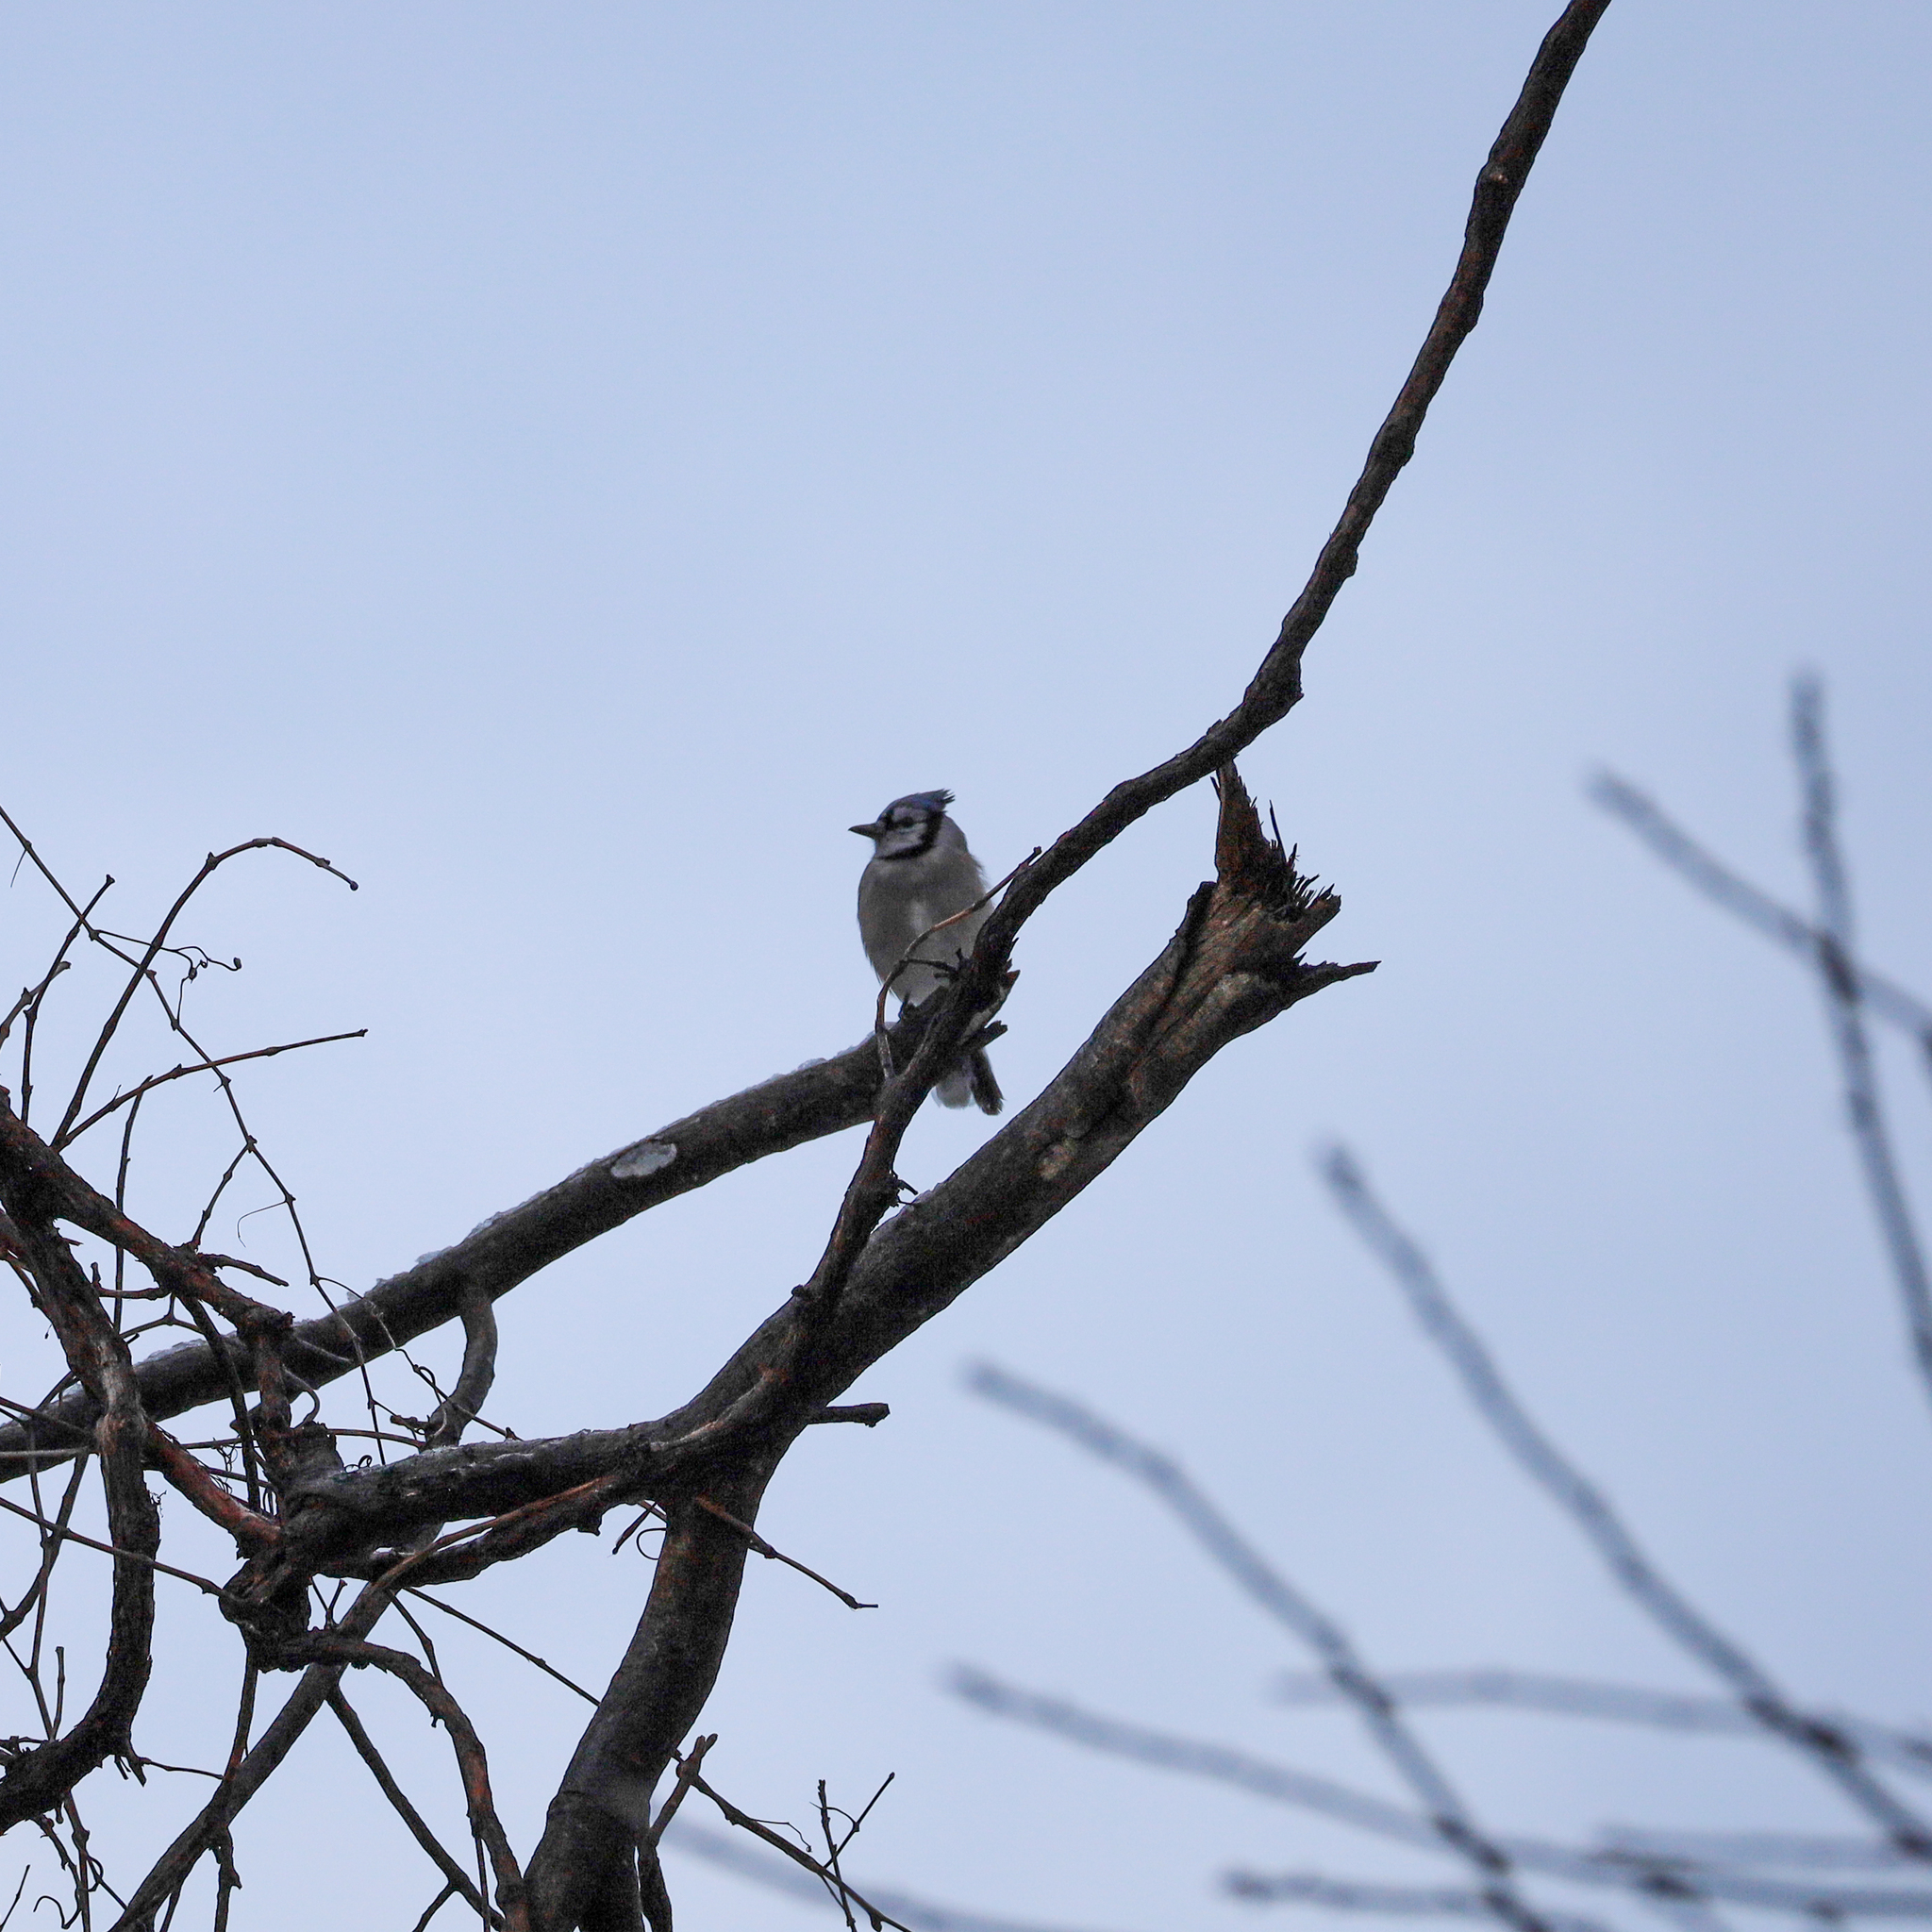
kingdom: Animalia
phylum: Chordata
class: Aves
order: Passeriformes
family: Corvidae
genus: Cyanocitta
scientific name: Cyanocitta cristata
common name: Blue jay
